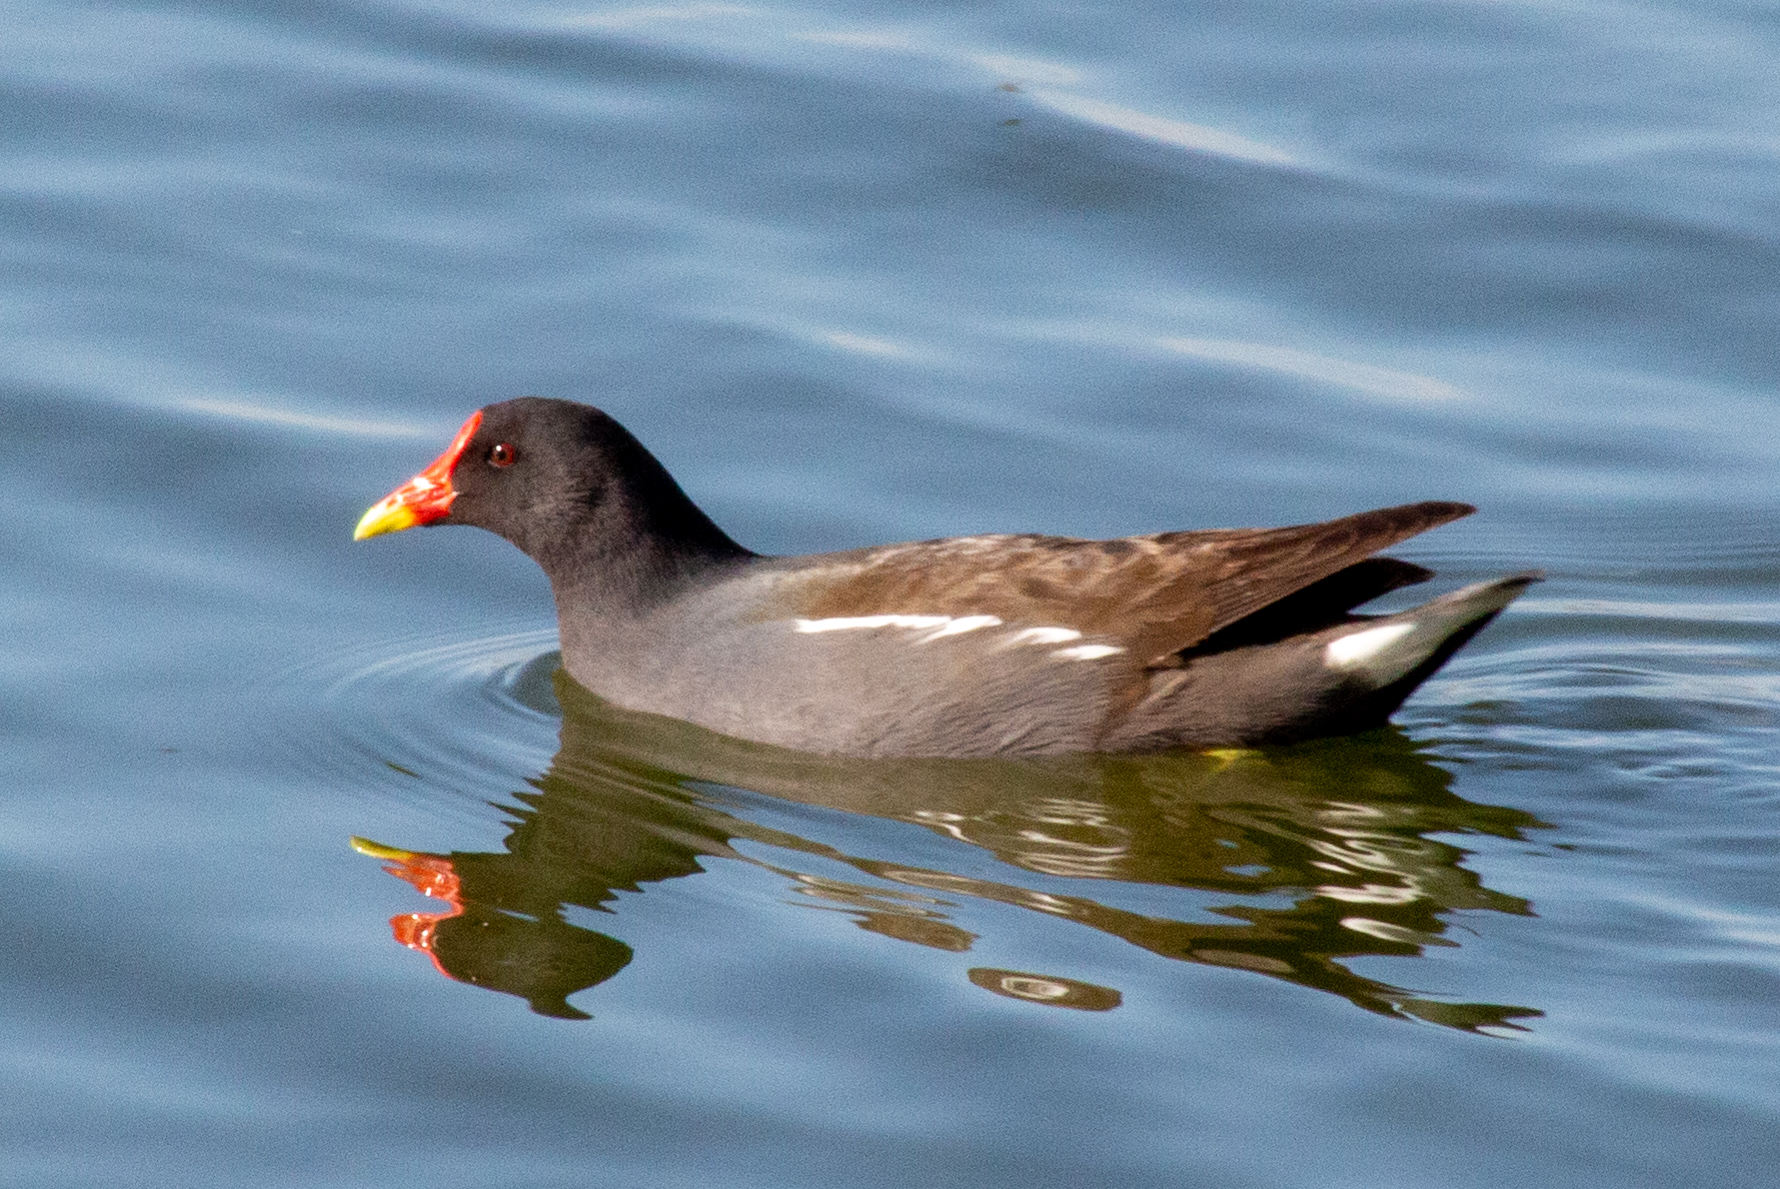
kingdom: Animalia
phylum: Chordata
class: Aves
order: Gruiformes
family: Rallidae
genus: Gallinula
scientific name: Gallinula chloropus
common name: Common moorhen
